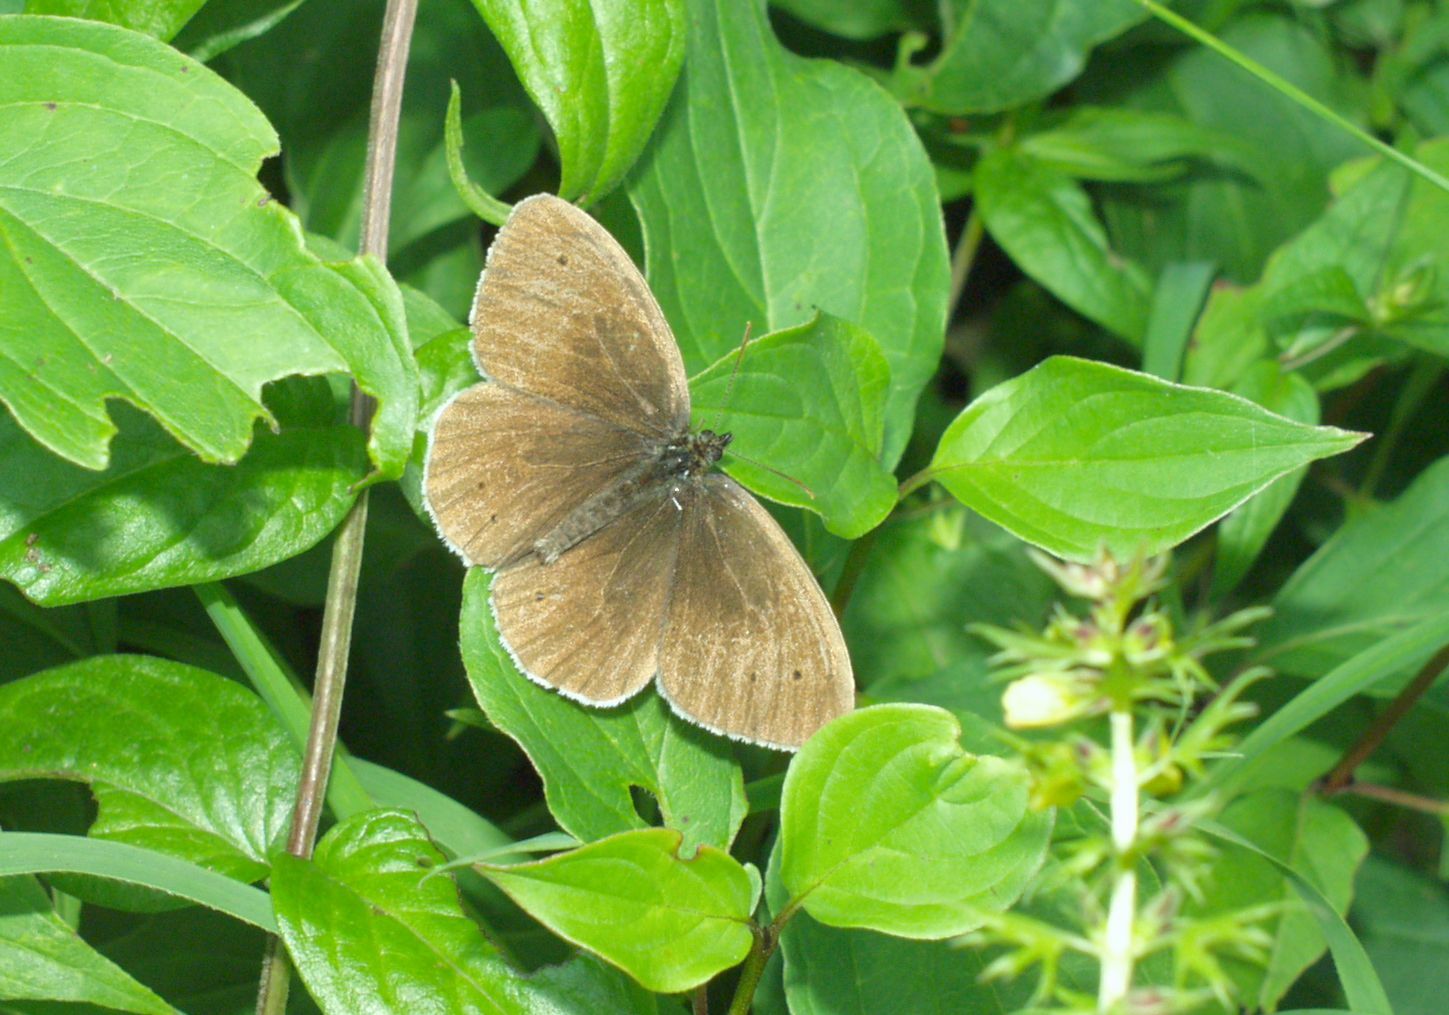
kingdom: Animalia
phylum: Arthropoda
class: Insecta
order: Lepidoptera
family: Nymphalidae
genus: Aphantopus
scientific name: Aphantopus hyperantus
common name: Ringlet
